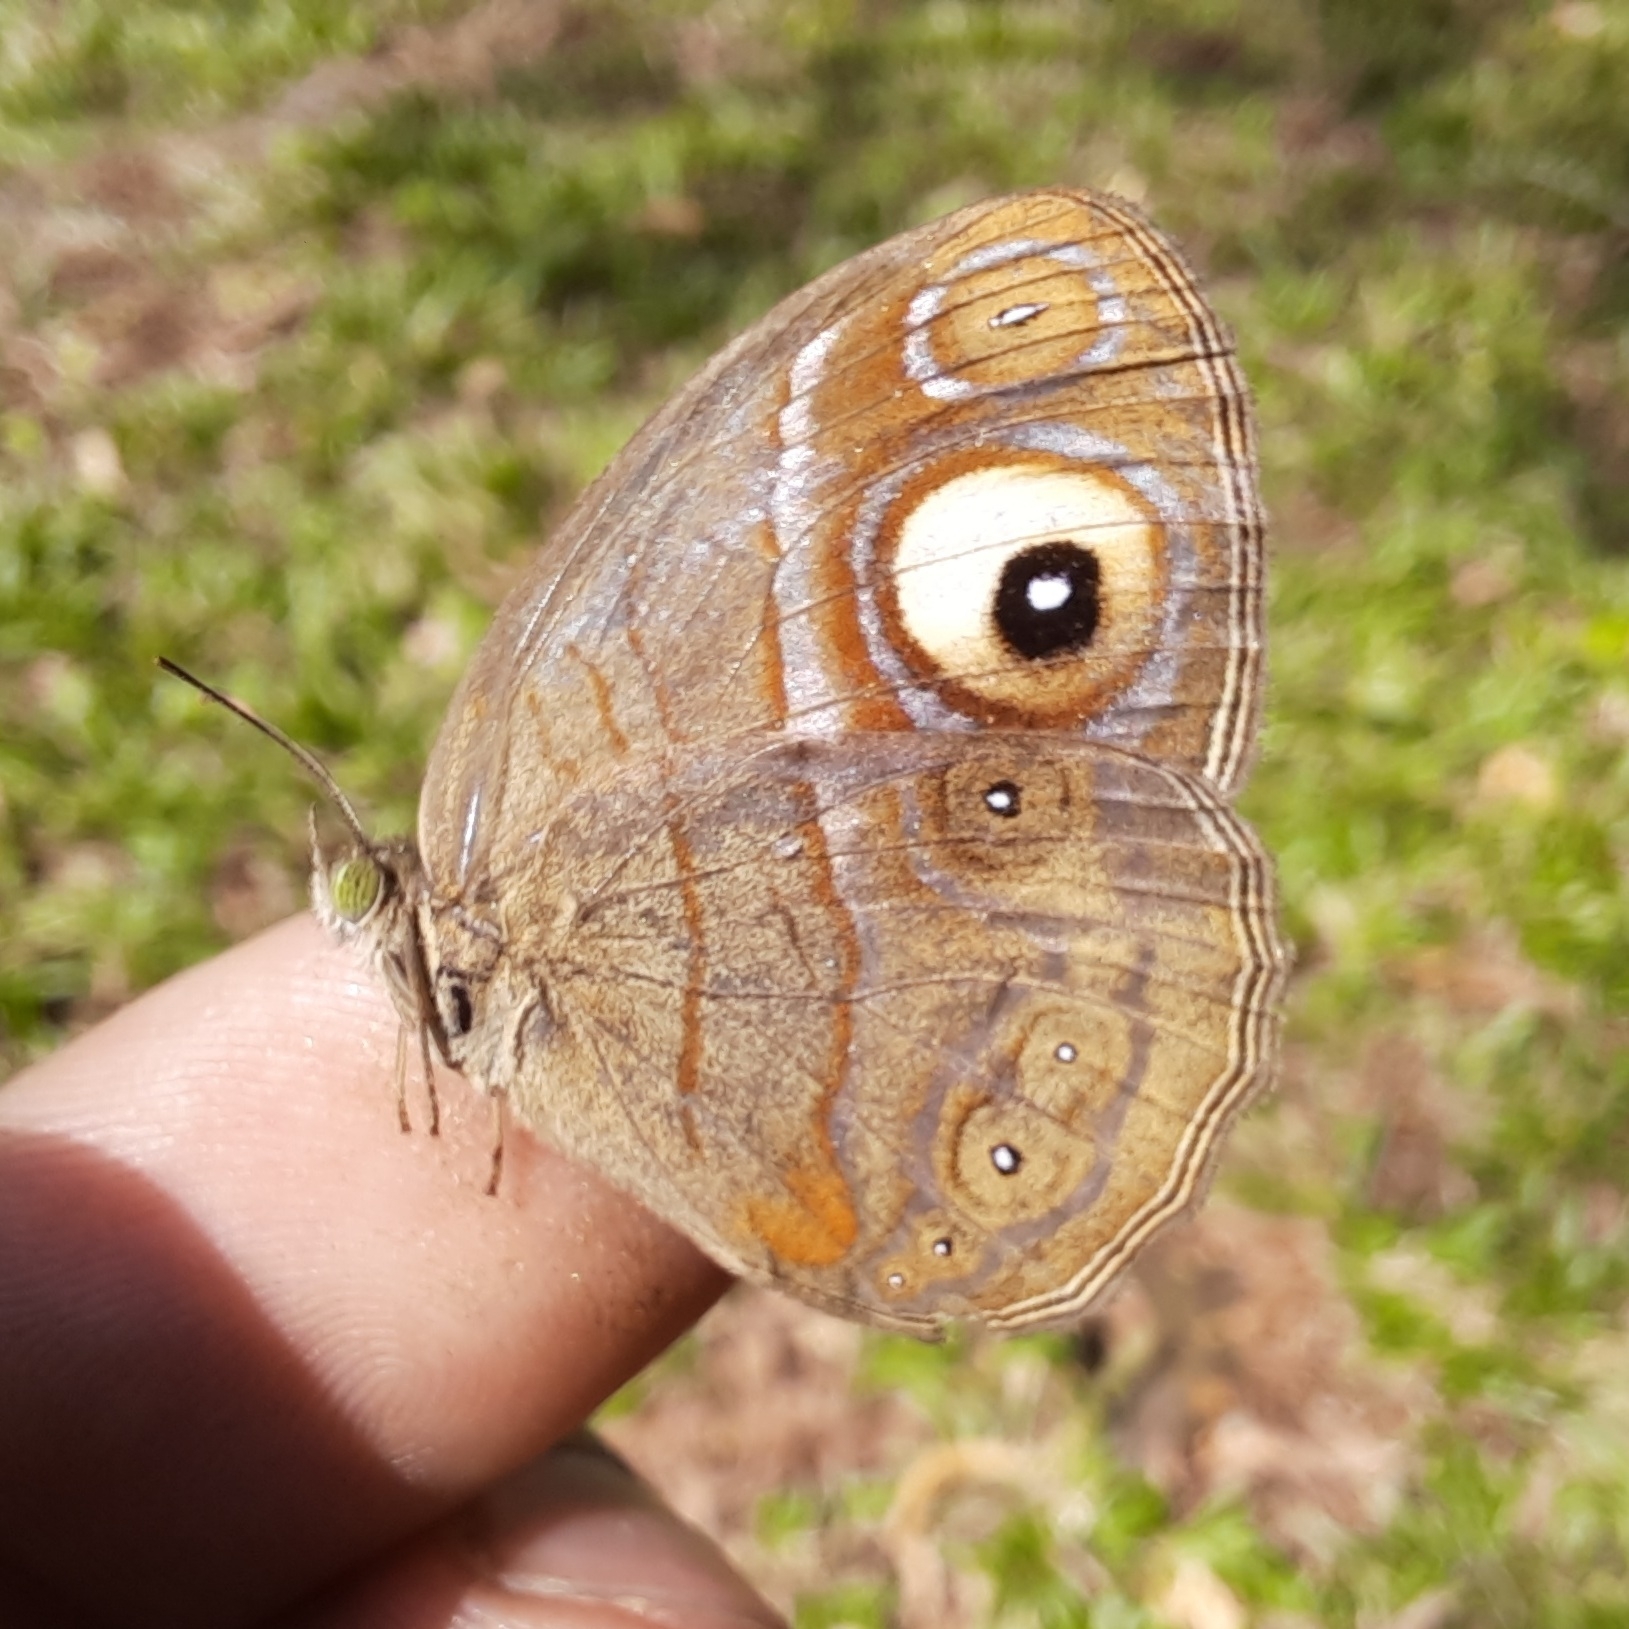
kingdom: Animalia
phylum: Arthropoda
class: Insecta
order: Lepidoptera
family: Nymphalidae
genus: Mycalesis
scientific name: Mycalesis patnia
